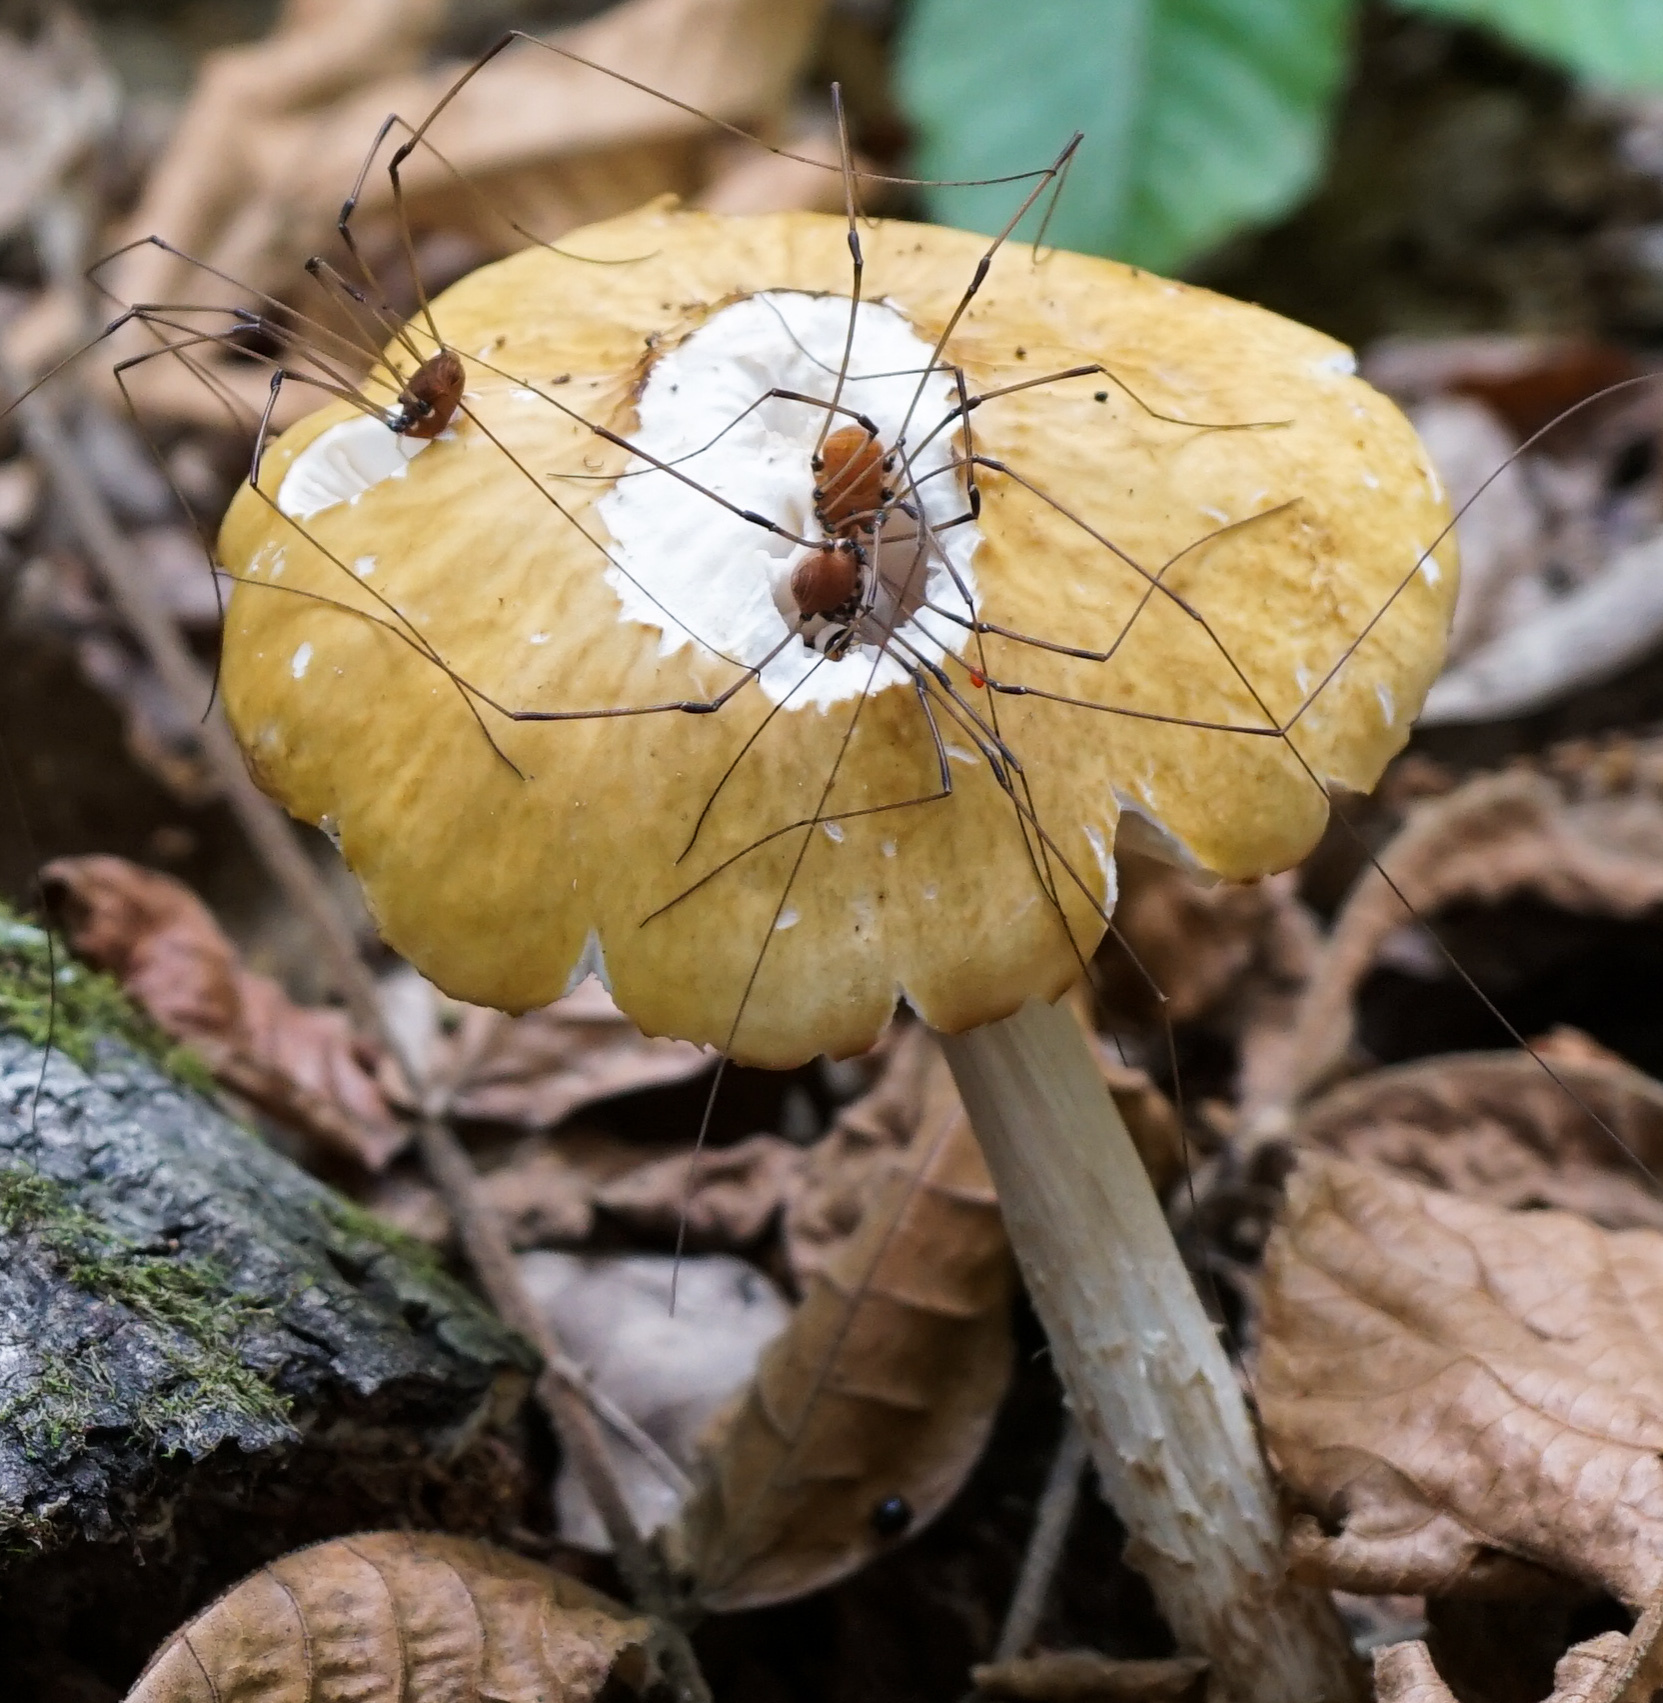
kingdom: Fungi
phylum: Basidiomycota
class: Agaricomycetes
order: Agaricales
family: Physalacriaceae
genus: Hymenopellis
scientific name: Hymenopellis incognita
